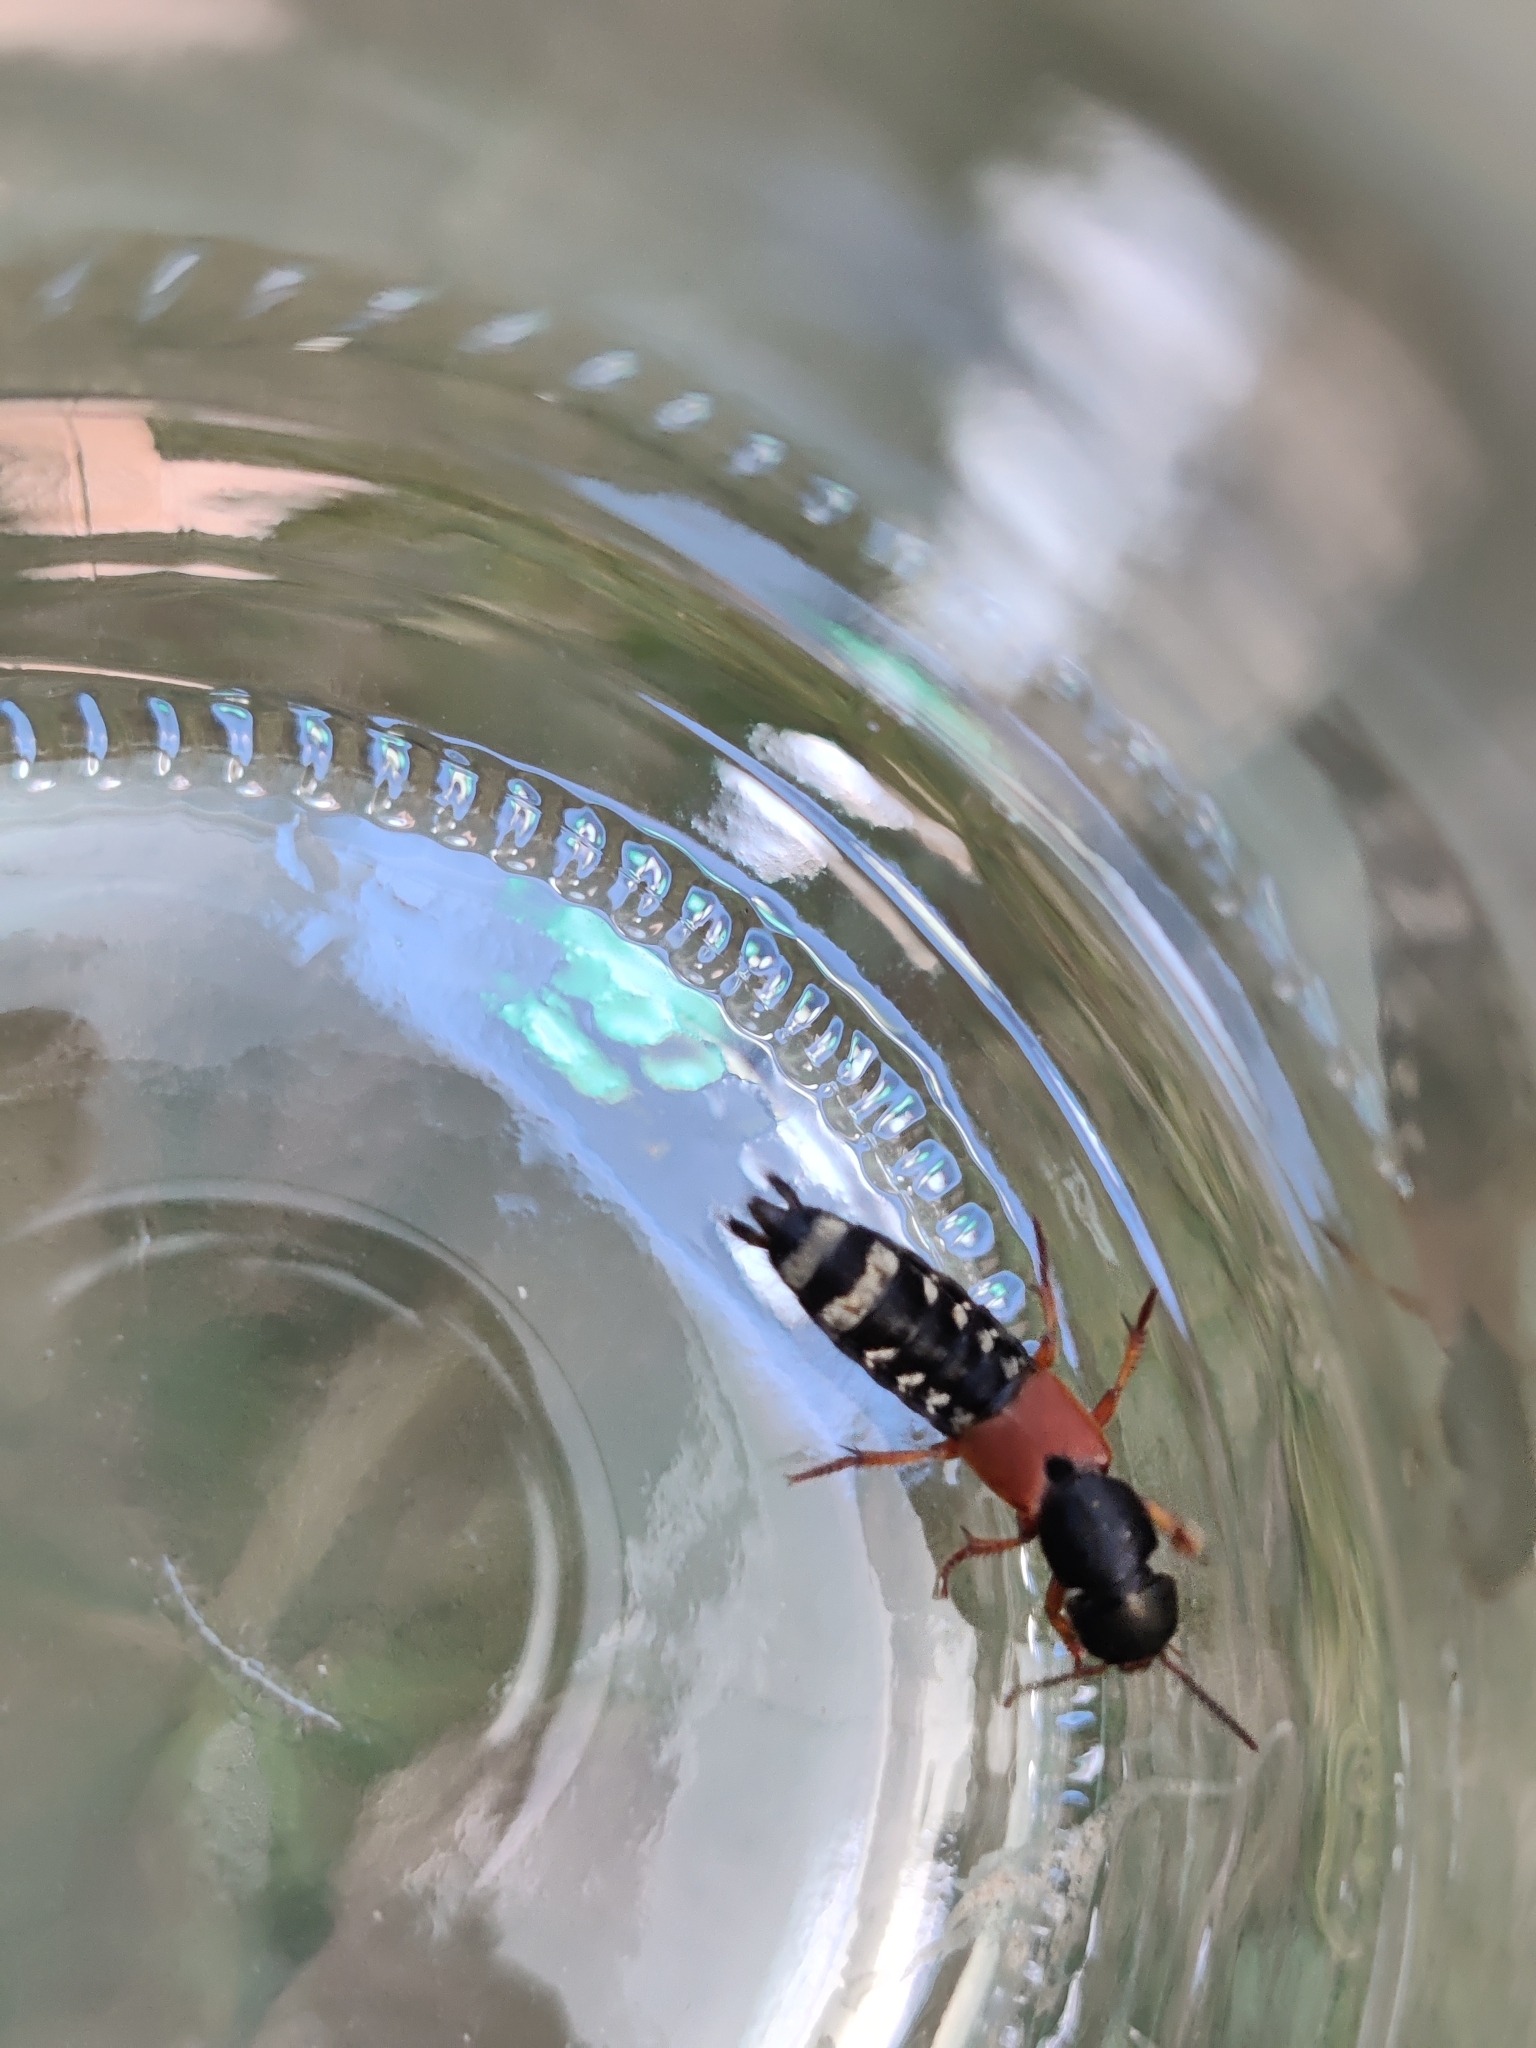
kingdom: Animalia
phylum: Arthropoda
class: Insecta
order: Coleoptera
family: Staphylinidae
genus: Platydracus
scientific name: Platydracus stercorarius
